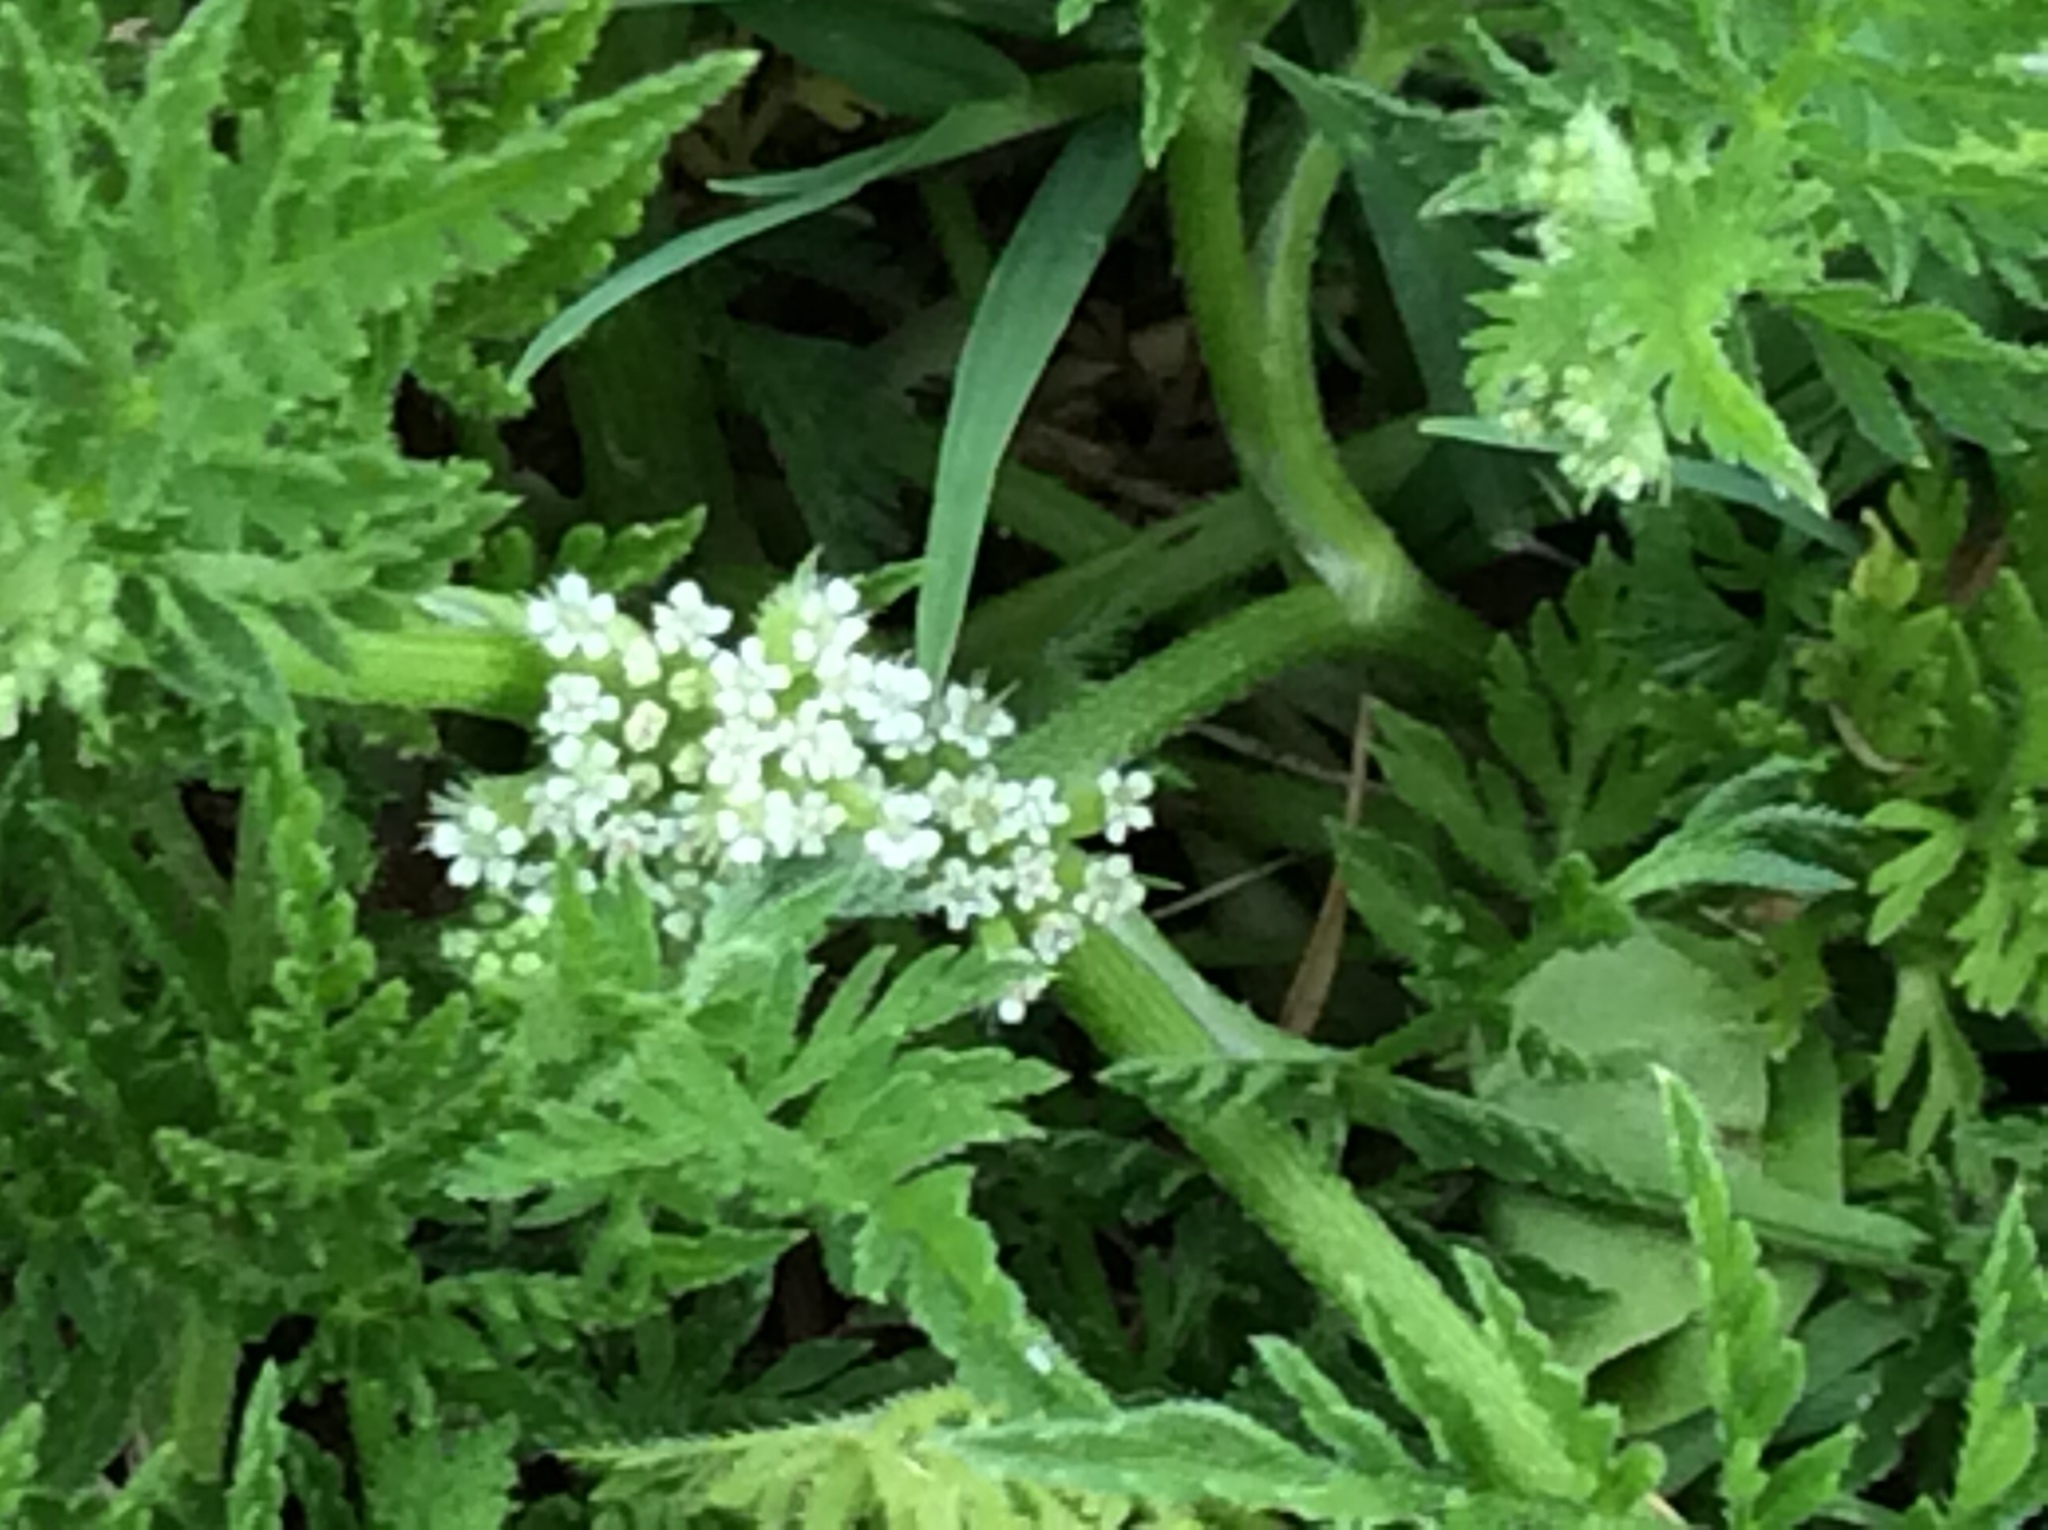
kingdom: Plantae
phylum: Tracheophyta
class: Magnoliopsida
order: Apiales
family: Apiaceae
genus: Torilis
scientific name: Torilis nodosa
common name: Knotted hedge-parsley
